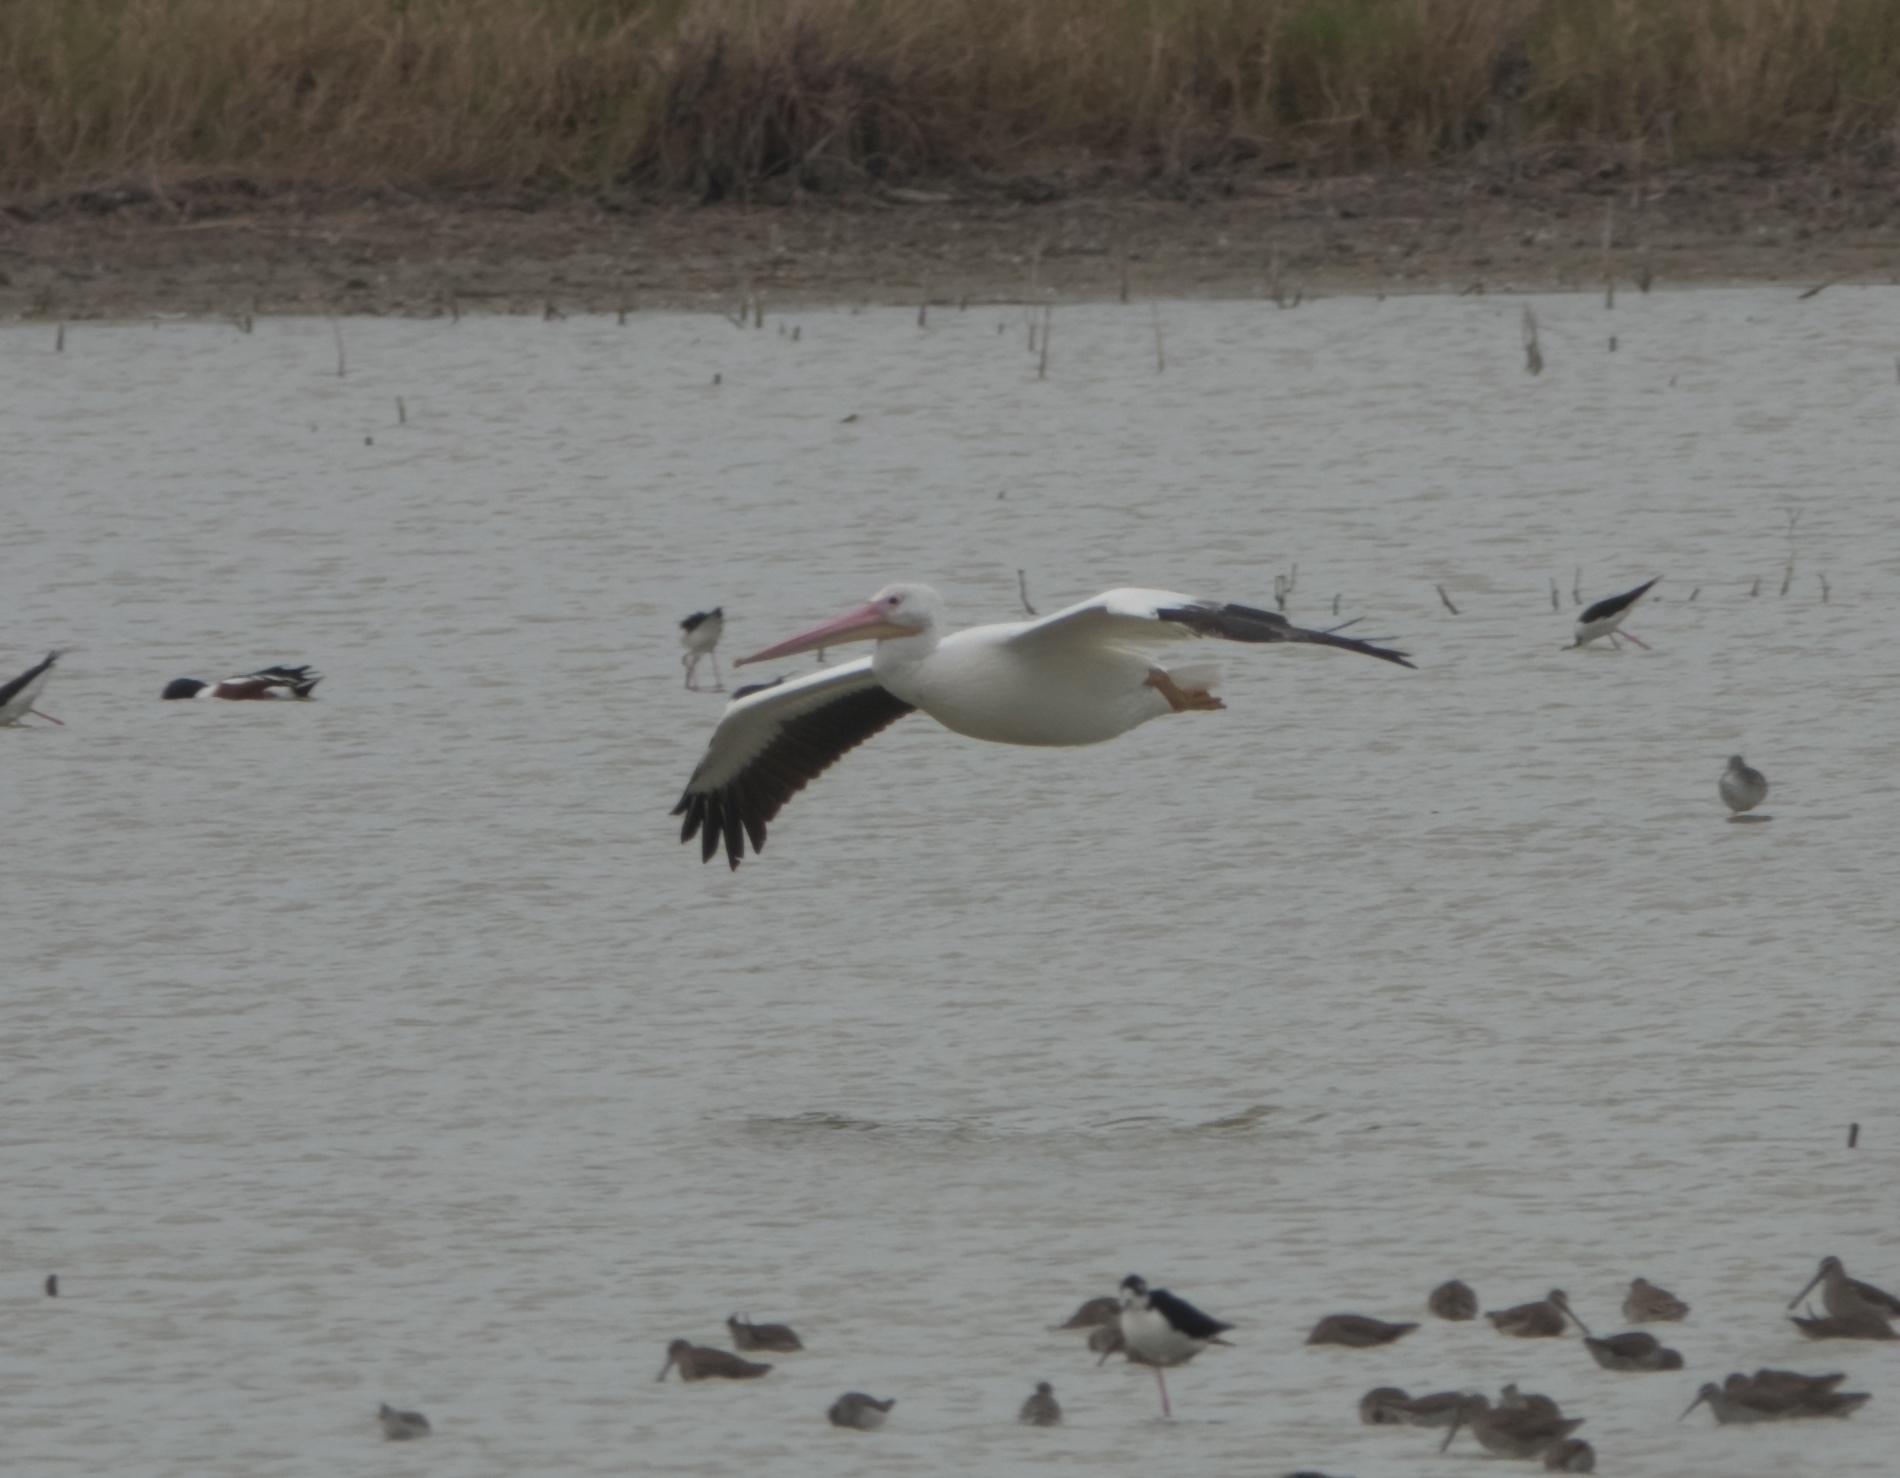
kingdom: Animalia
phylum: Chordata
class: Aves
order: Pelecaniformes
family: Pelecanidae
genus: Pelecanus
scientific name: Pelecanus erythrorhynchos
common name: American white pelican
